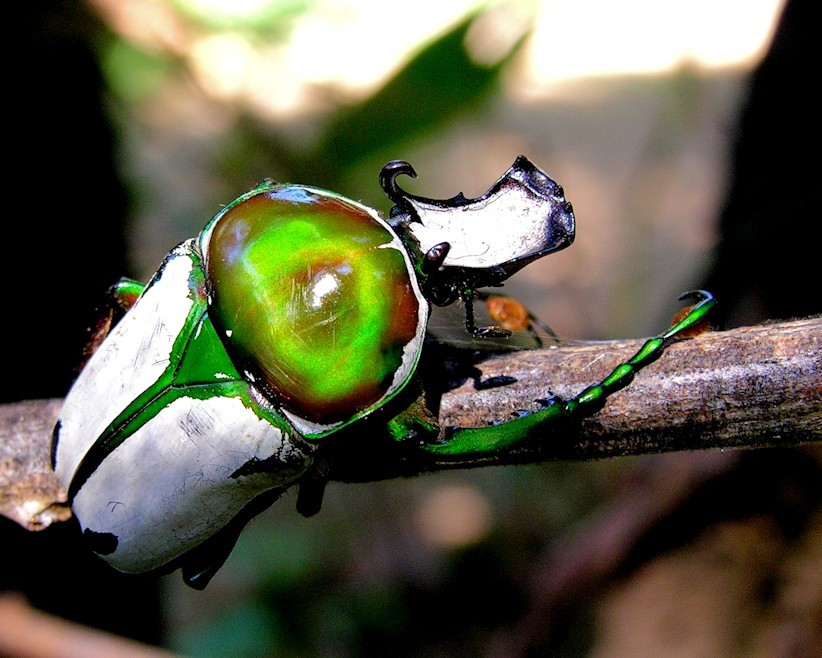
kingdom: Animalia
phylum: Arthropoda
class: Insecta
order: Coleoptera
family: Scarabaeidae
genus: Rhamphorrhina
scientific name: Rhamphorrhina splendens
